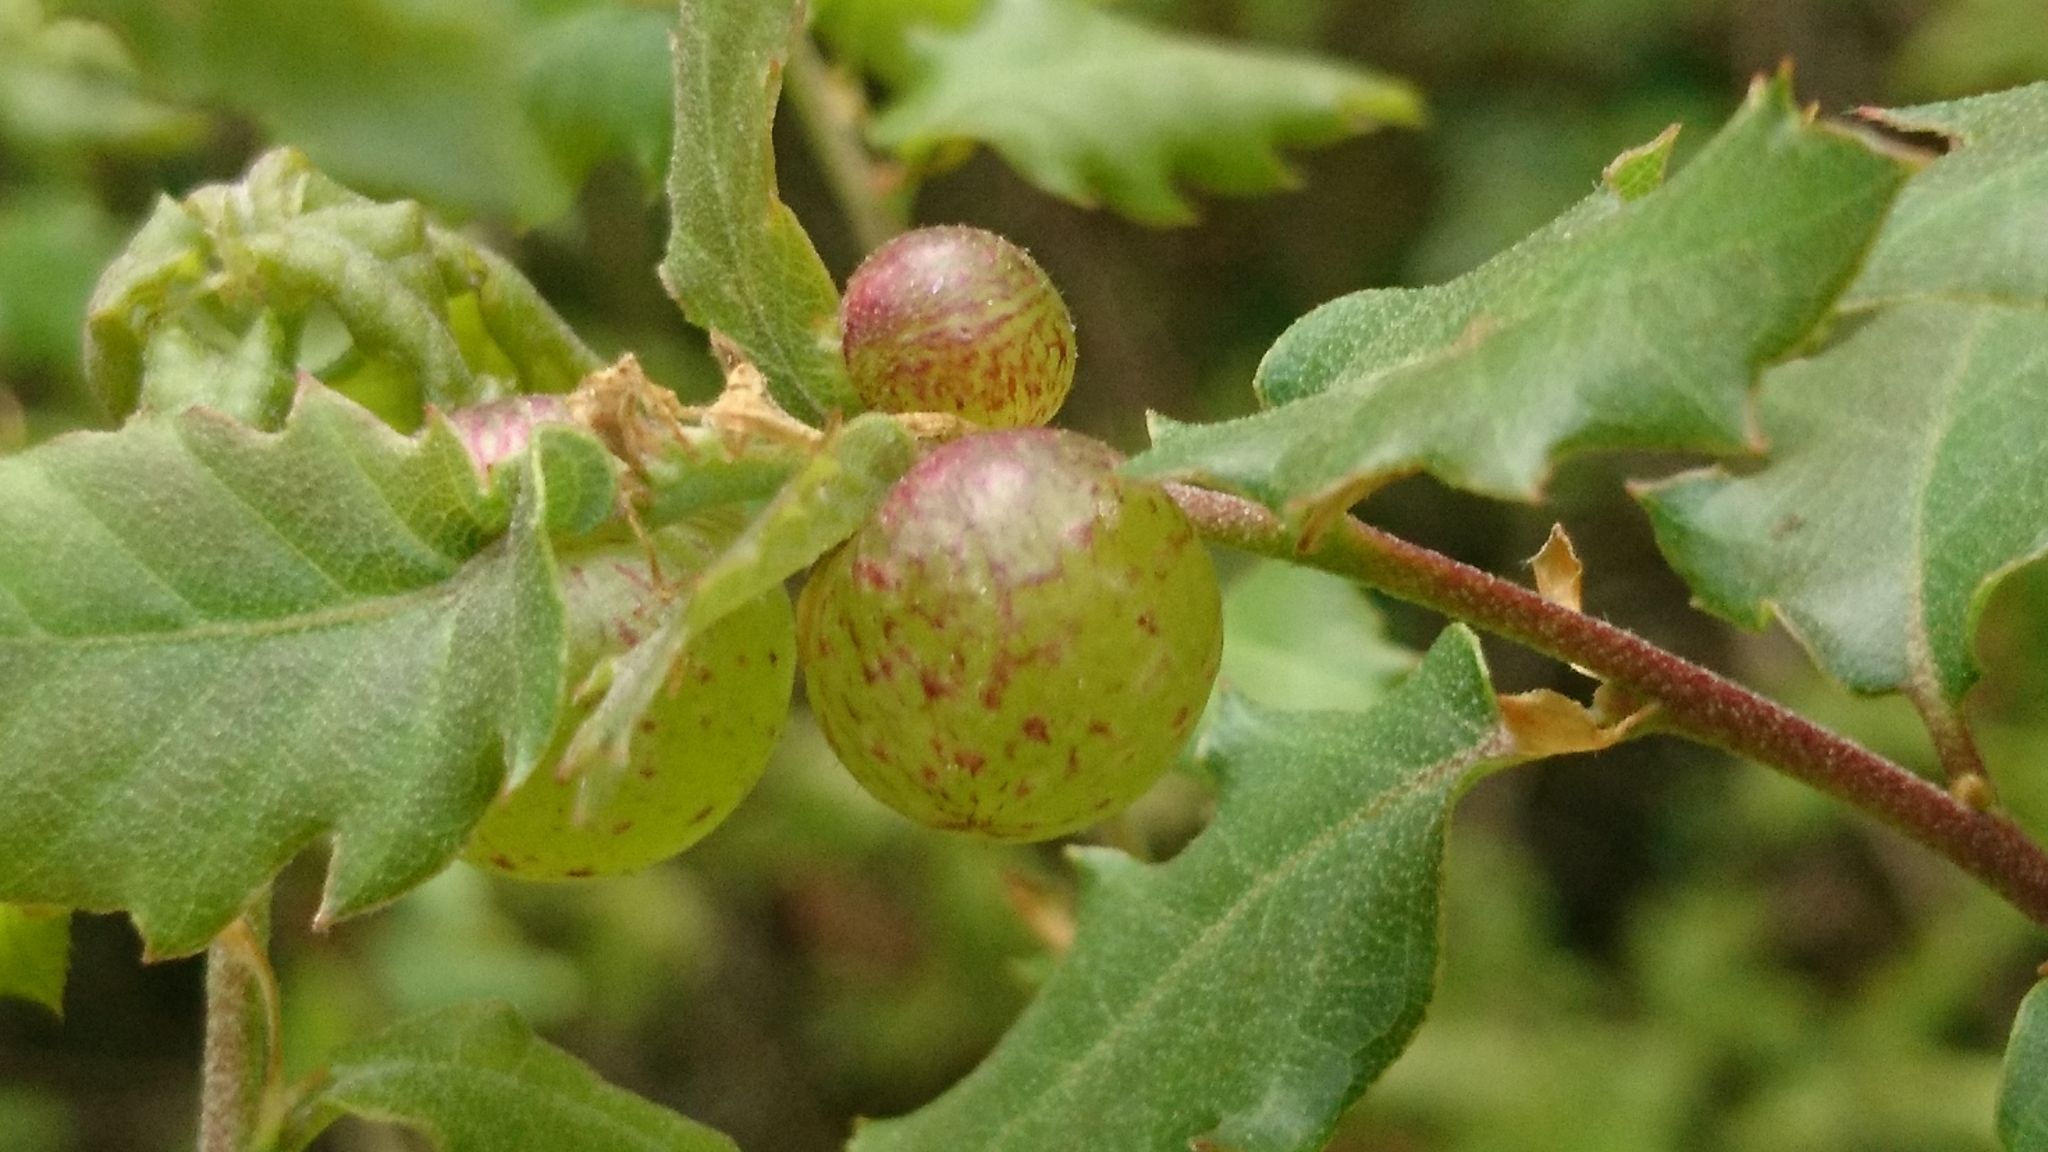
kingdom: Animalia
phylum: Arthropoda
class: Insecta
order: Hymenoptera
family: Cynipidae
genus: Neuroterus
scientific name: Neuroterus quercusbaccarum
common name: Common spangle gall
